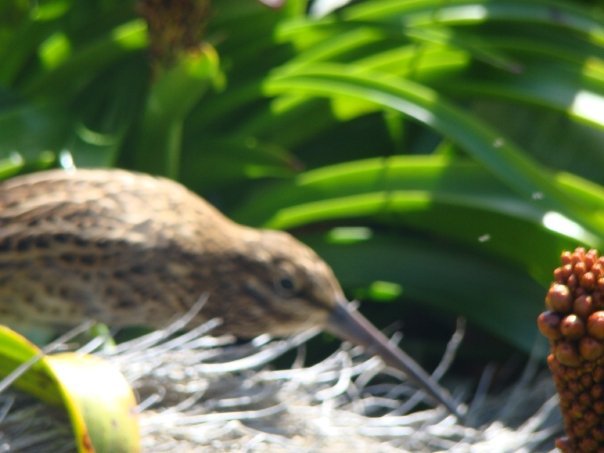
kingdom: Animalia
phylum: Chordata
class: Aves
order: Charadriiformes
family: Scolopacidae
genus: Coenocorypha
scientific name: Coenocorypha aucklandica
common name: Subantarctic snipe
